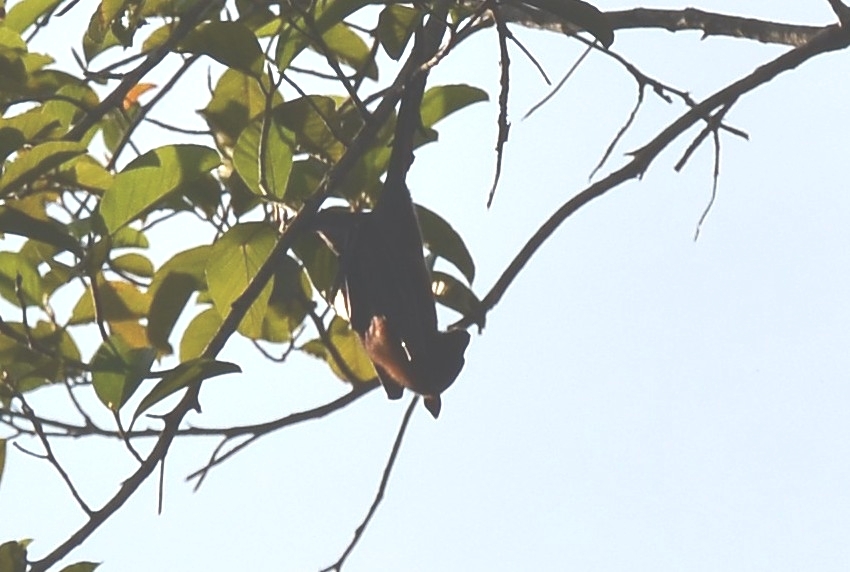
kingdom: Animalia
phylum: Chordata
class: Mammalia
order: Chiroptera
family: Pteropodidae
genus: Pteropus
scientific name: Pteropus vampyrus
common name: Large flying fox
